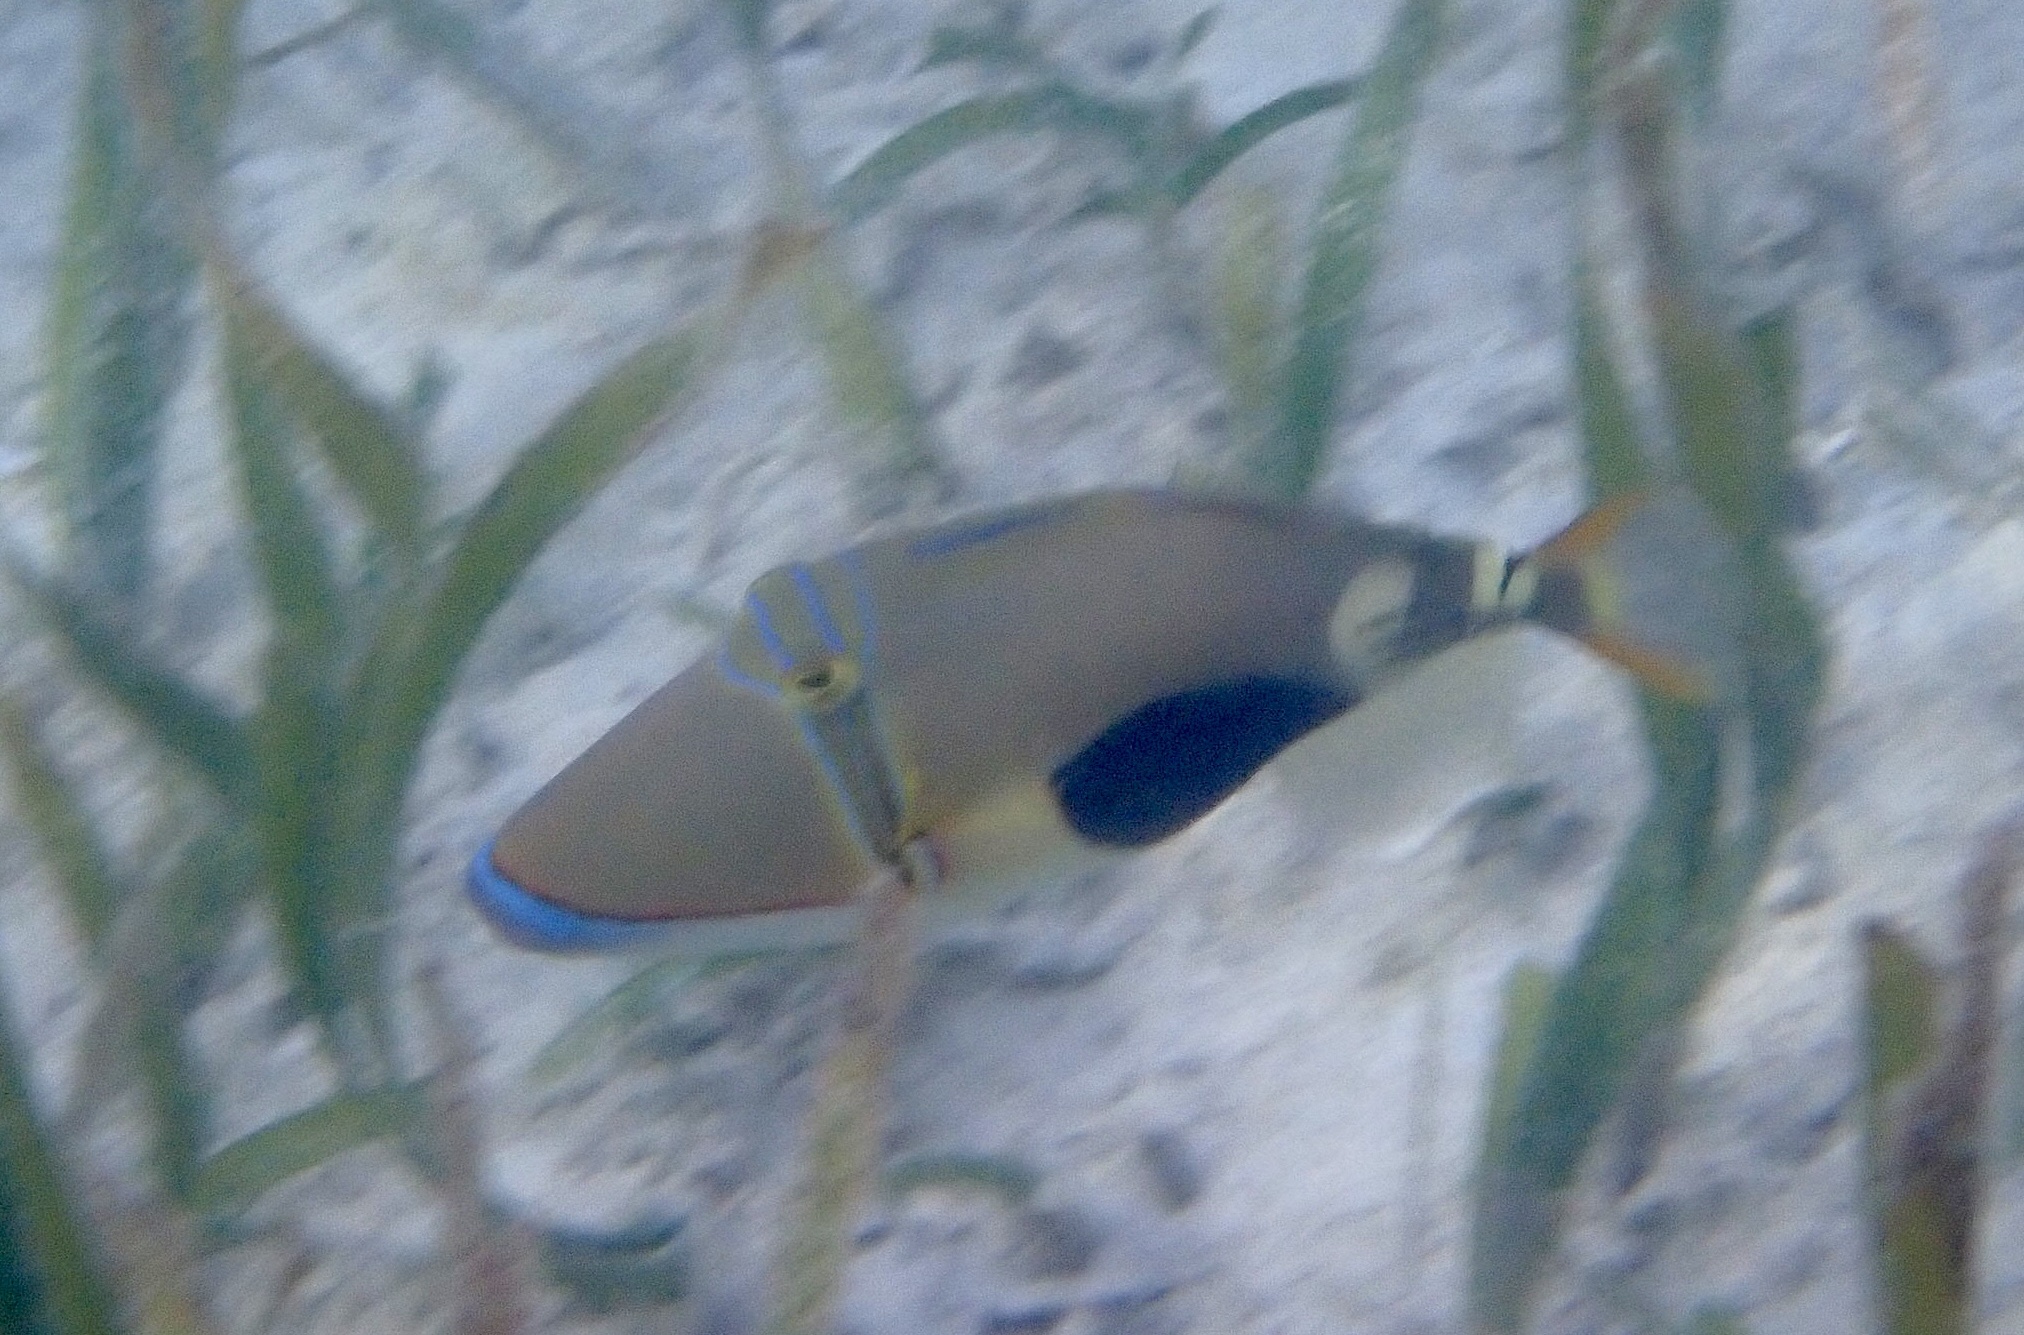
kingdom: Animalia
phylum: Chordata
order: Tetraodontiformes
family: Balistidae
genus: Rhinecanthus
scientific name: Rhinecanthus verrucosus
